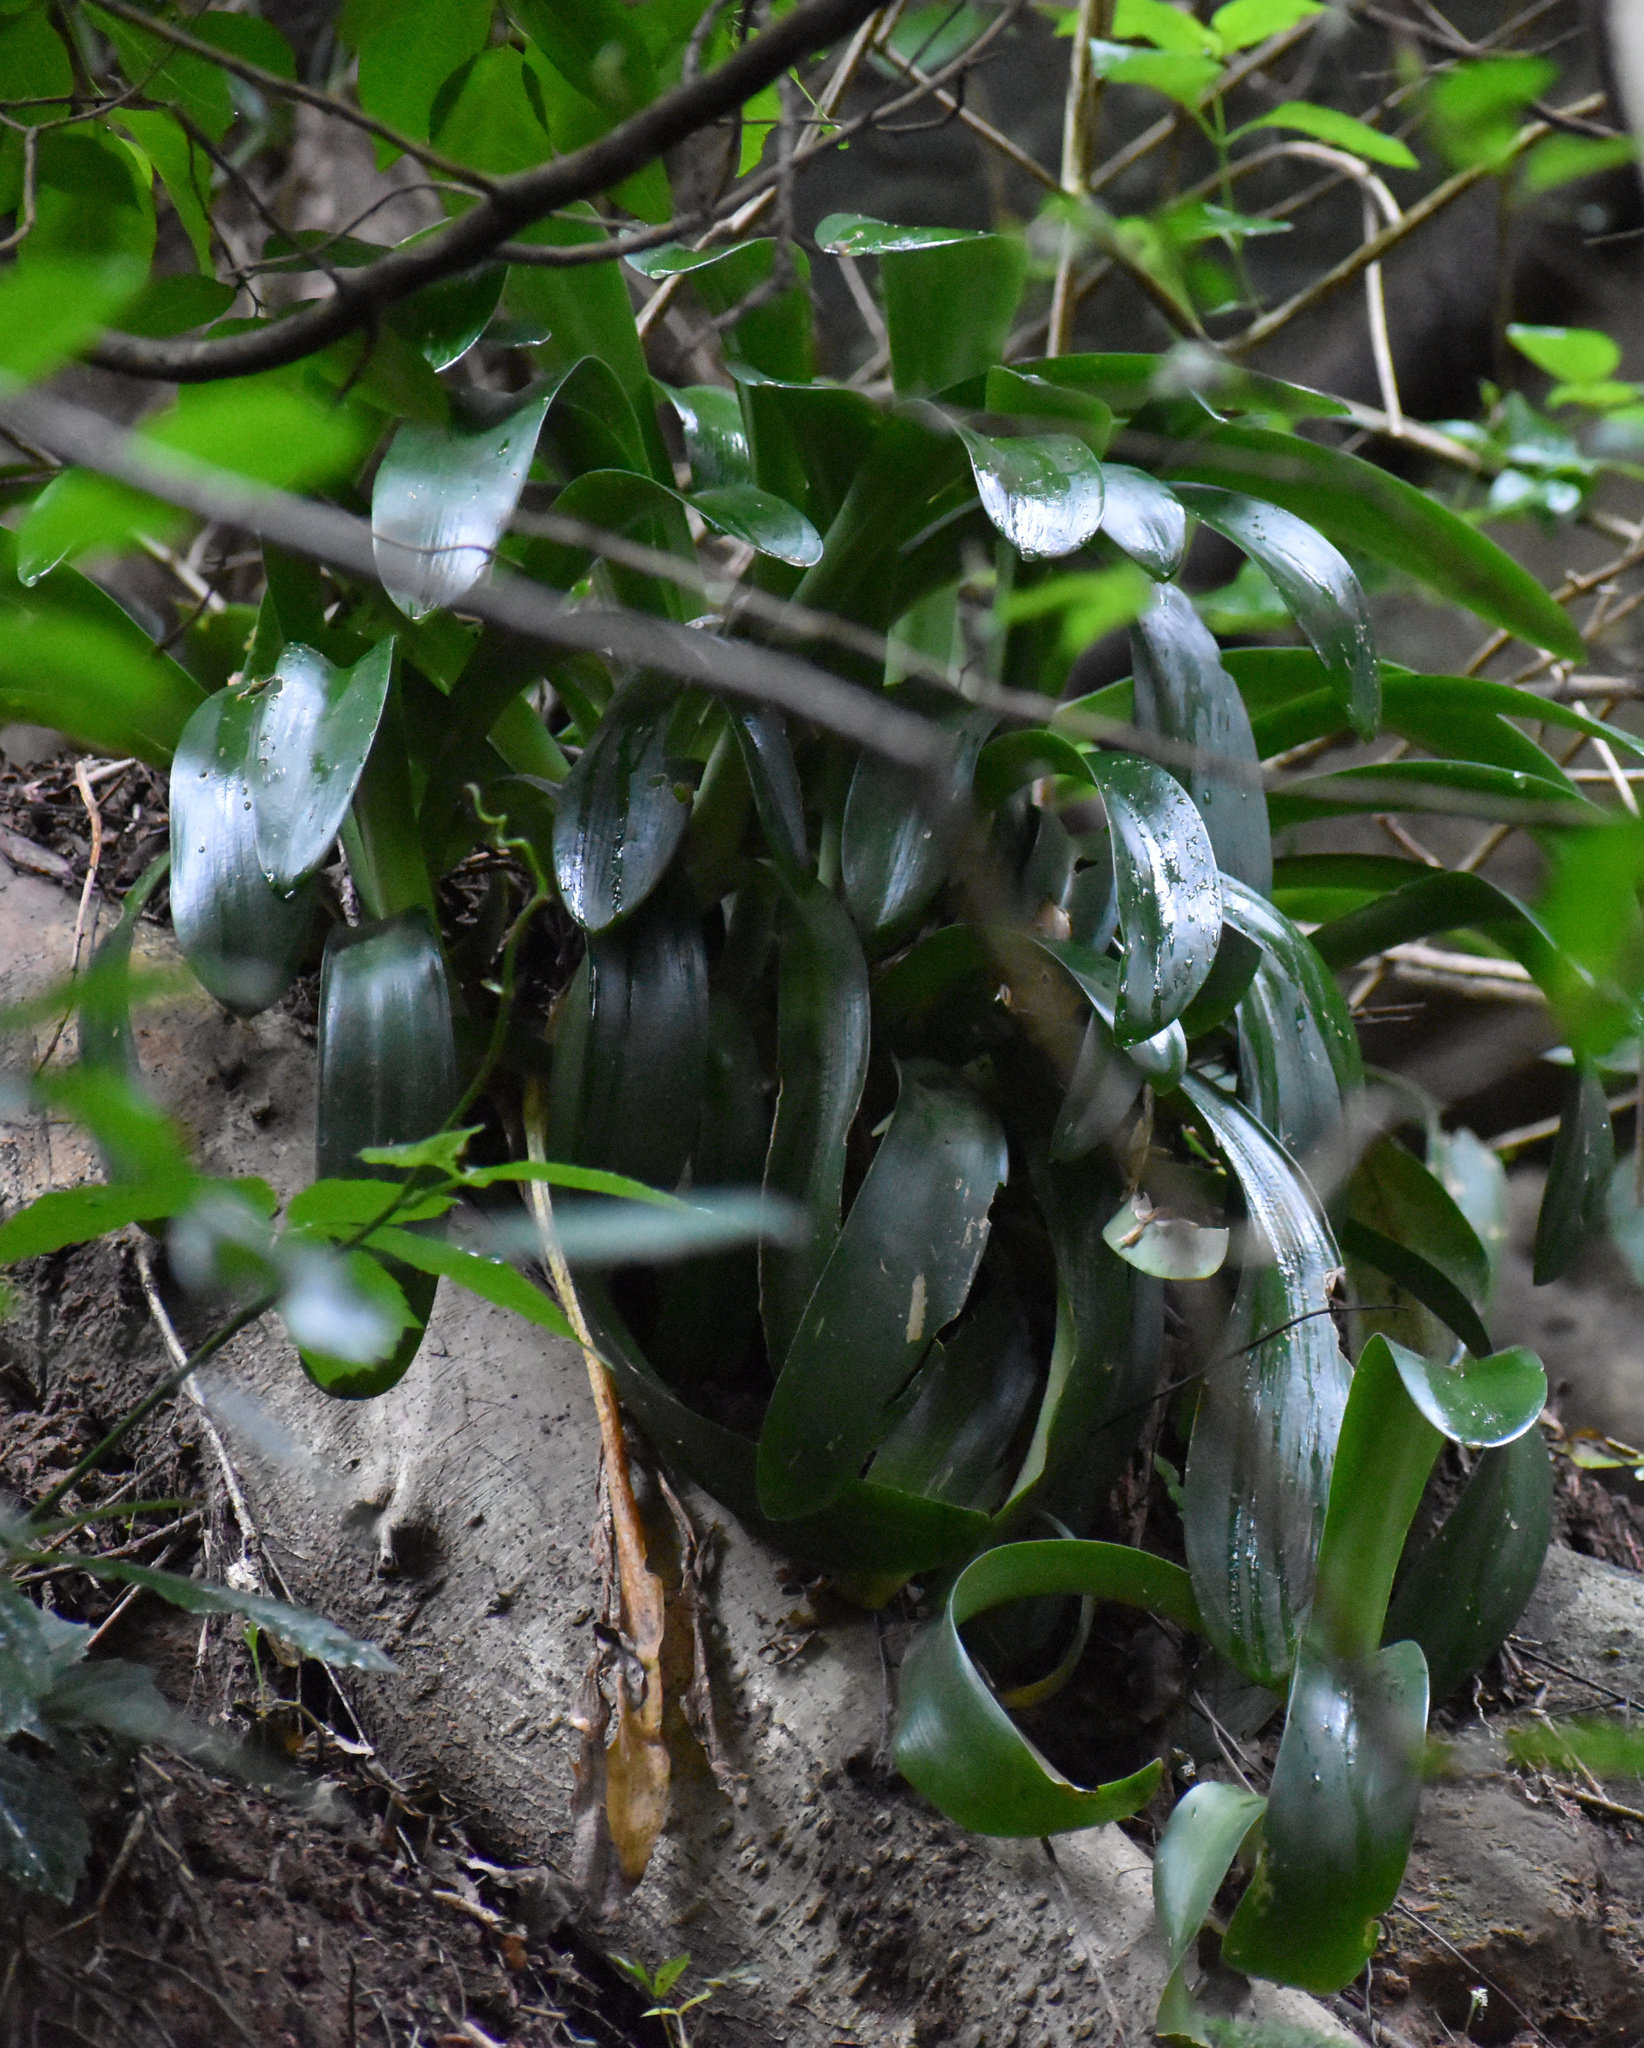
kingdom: Plantae
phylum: Tracheophyta
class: Liliopsida
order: Asparagales
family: Amaryllidaceae
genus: Haemanthus
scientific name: Haemanthus albiflos
